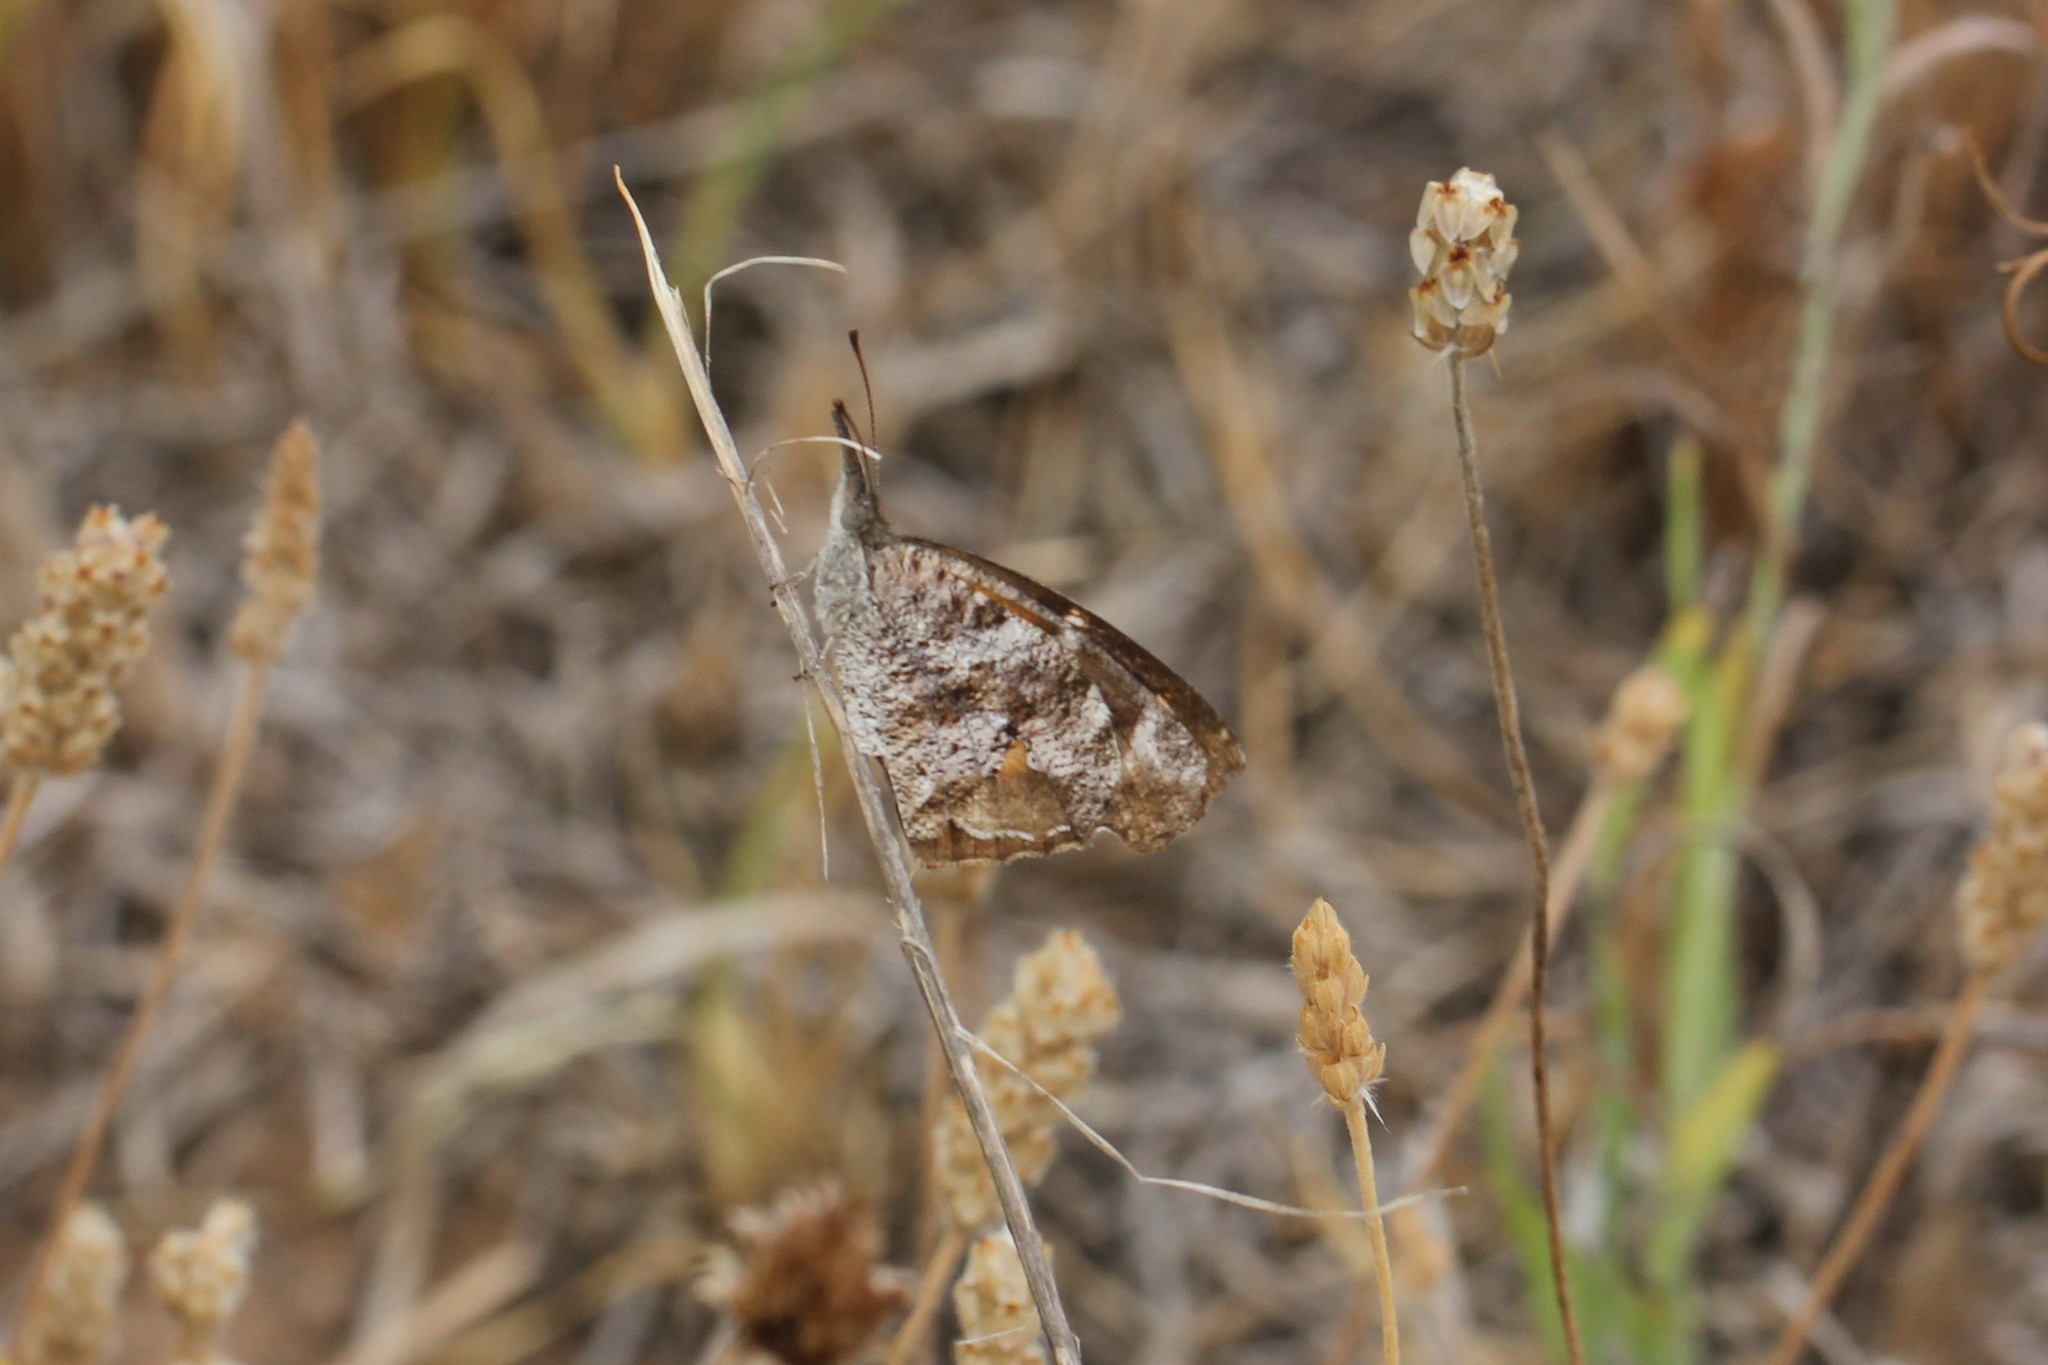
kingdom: Animalia
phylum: Arthropoda
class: Insecta
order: Lepidoptera
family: Nymphalidae
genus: Libytheana
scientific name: Libytheana carinenta
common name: American snout
